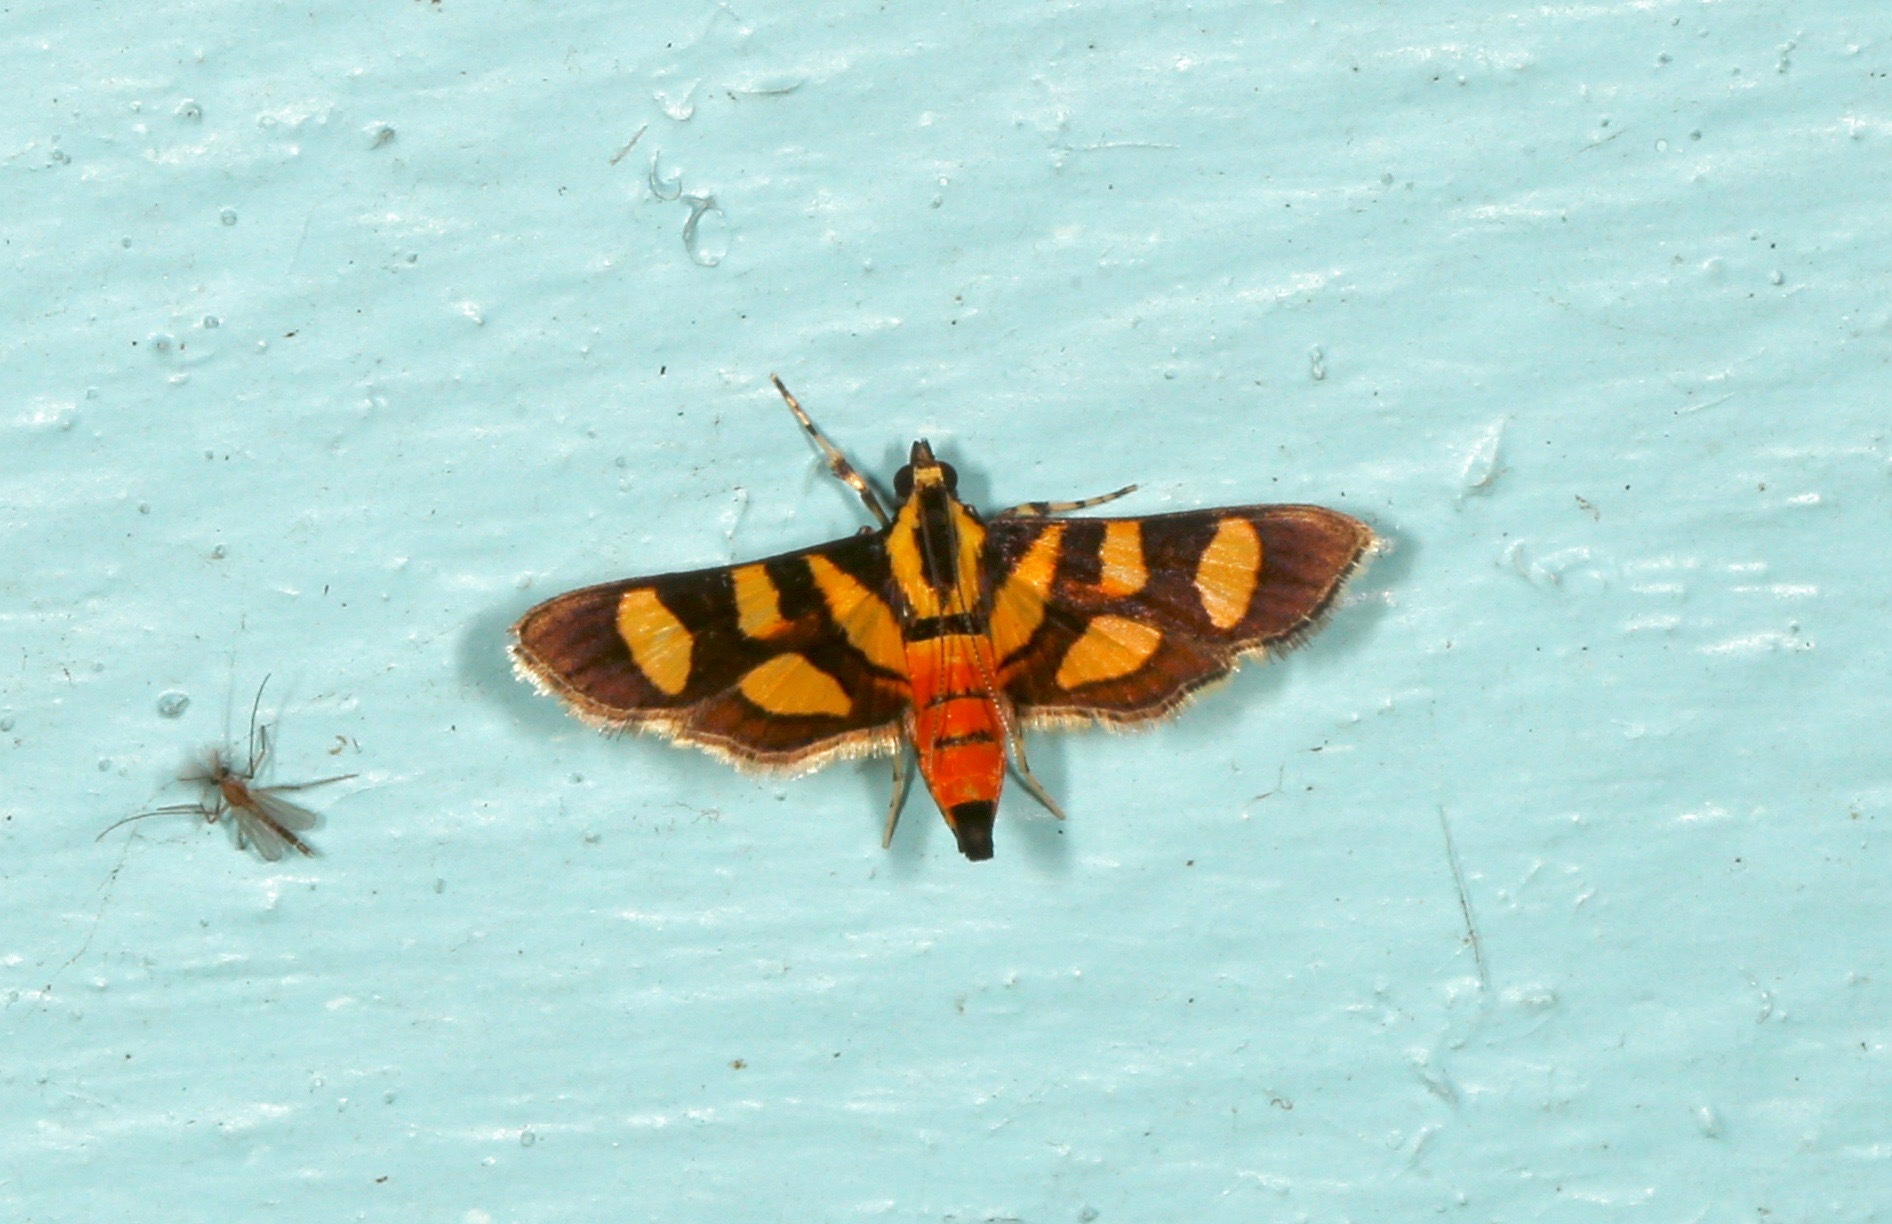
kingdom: Animalia
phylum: Arthropoda
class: Insecta
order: Lepidoptera
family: Crambidae
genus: Syngamia
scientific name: Syngamia florella
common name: Orange-spotted flower moth
